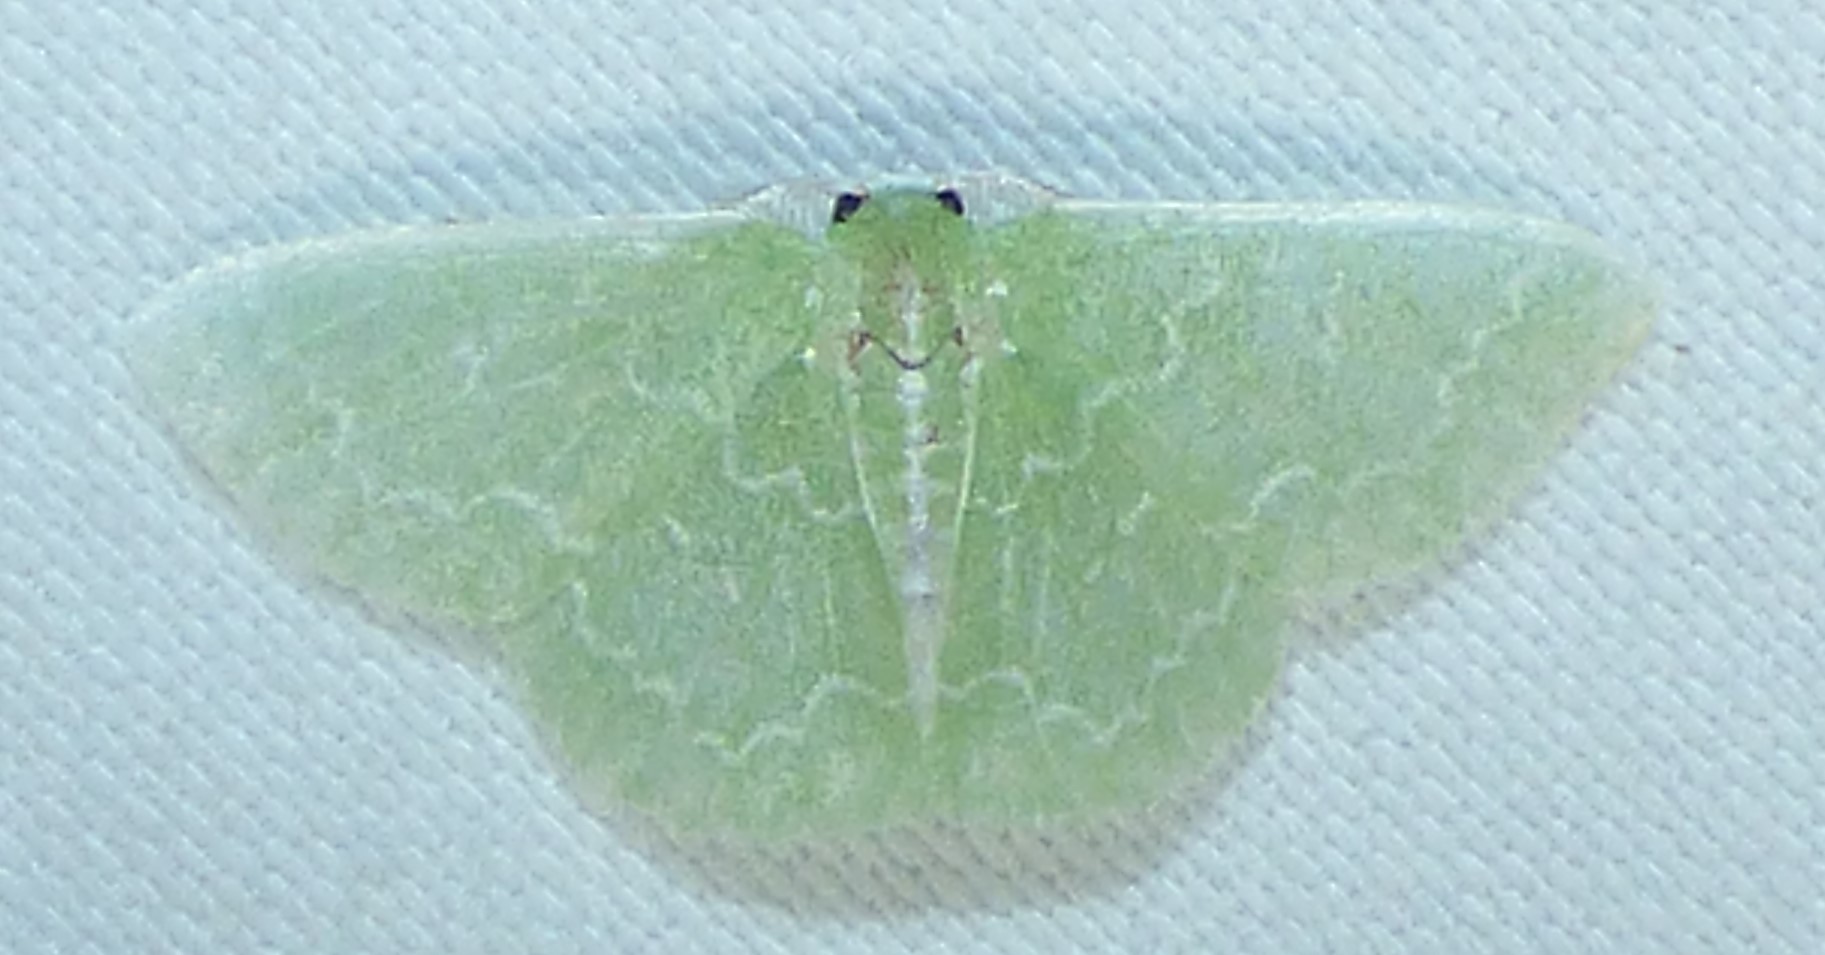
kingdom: Animalia
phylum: Arthropoda
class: Insecta
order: Lepidoptera
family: Geometridae
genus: Synchlora
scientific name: Synchlora frondaria
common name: Southern emerald
